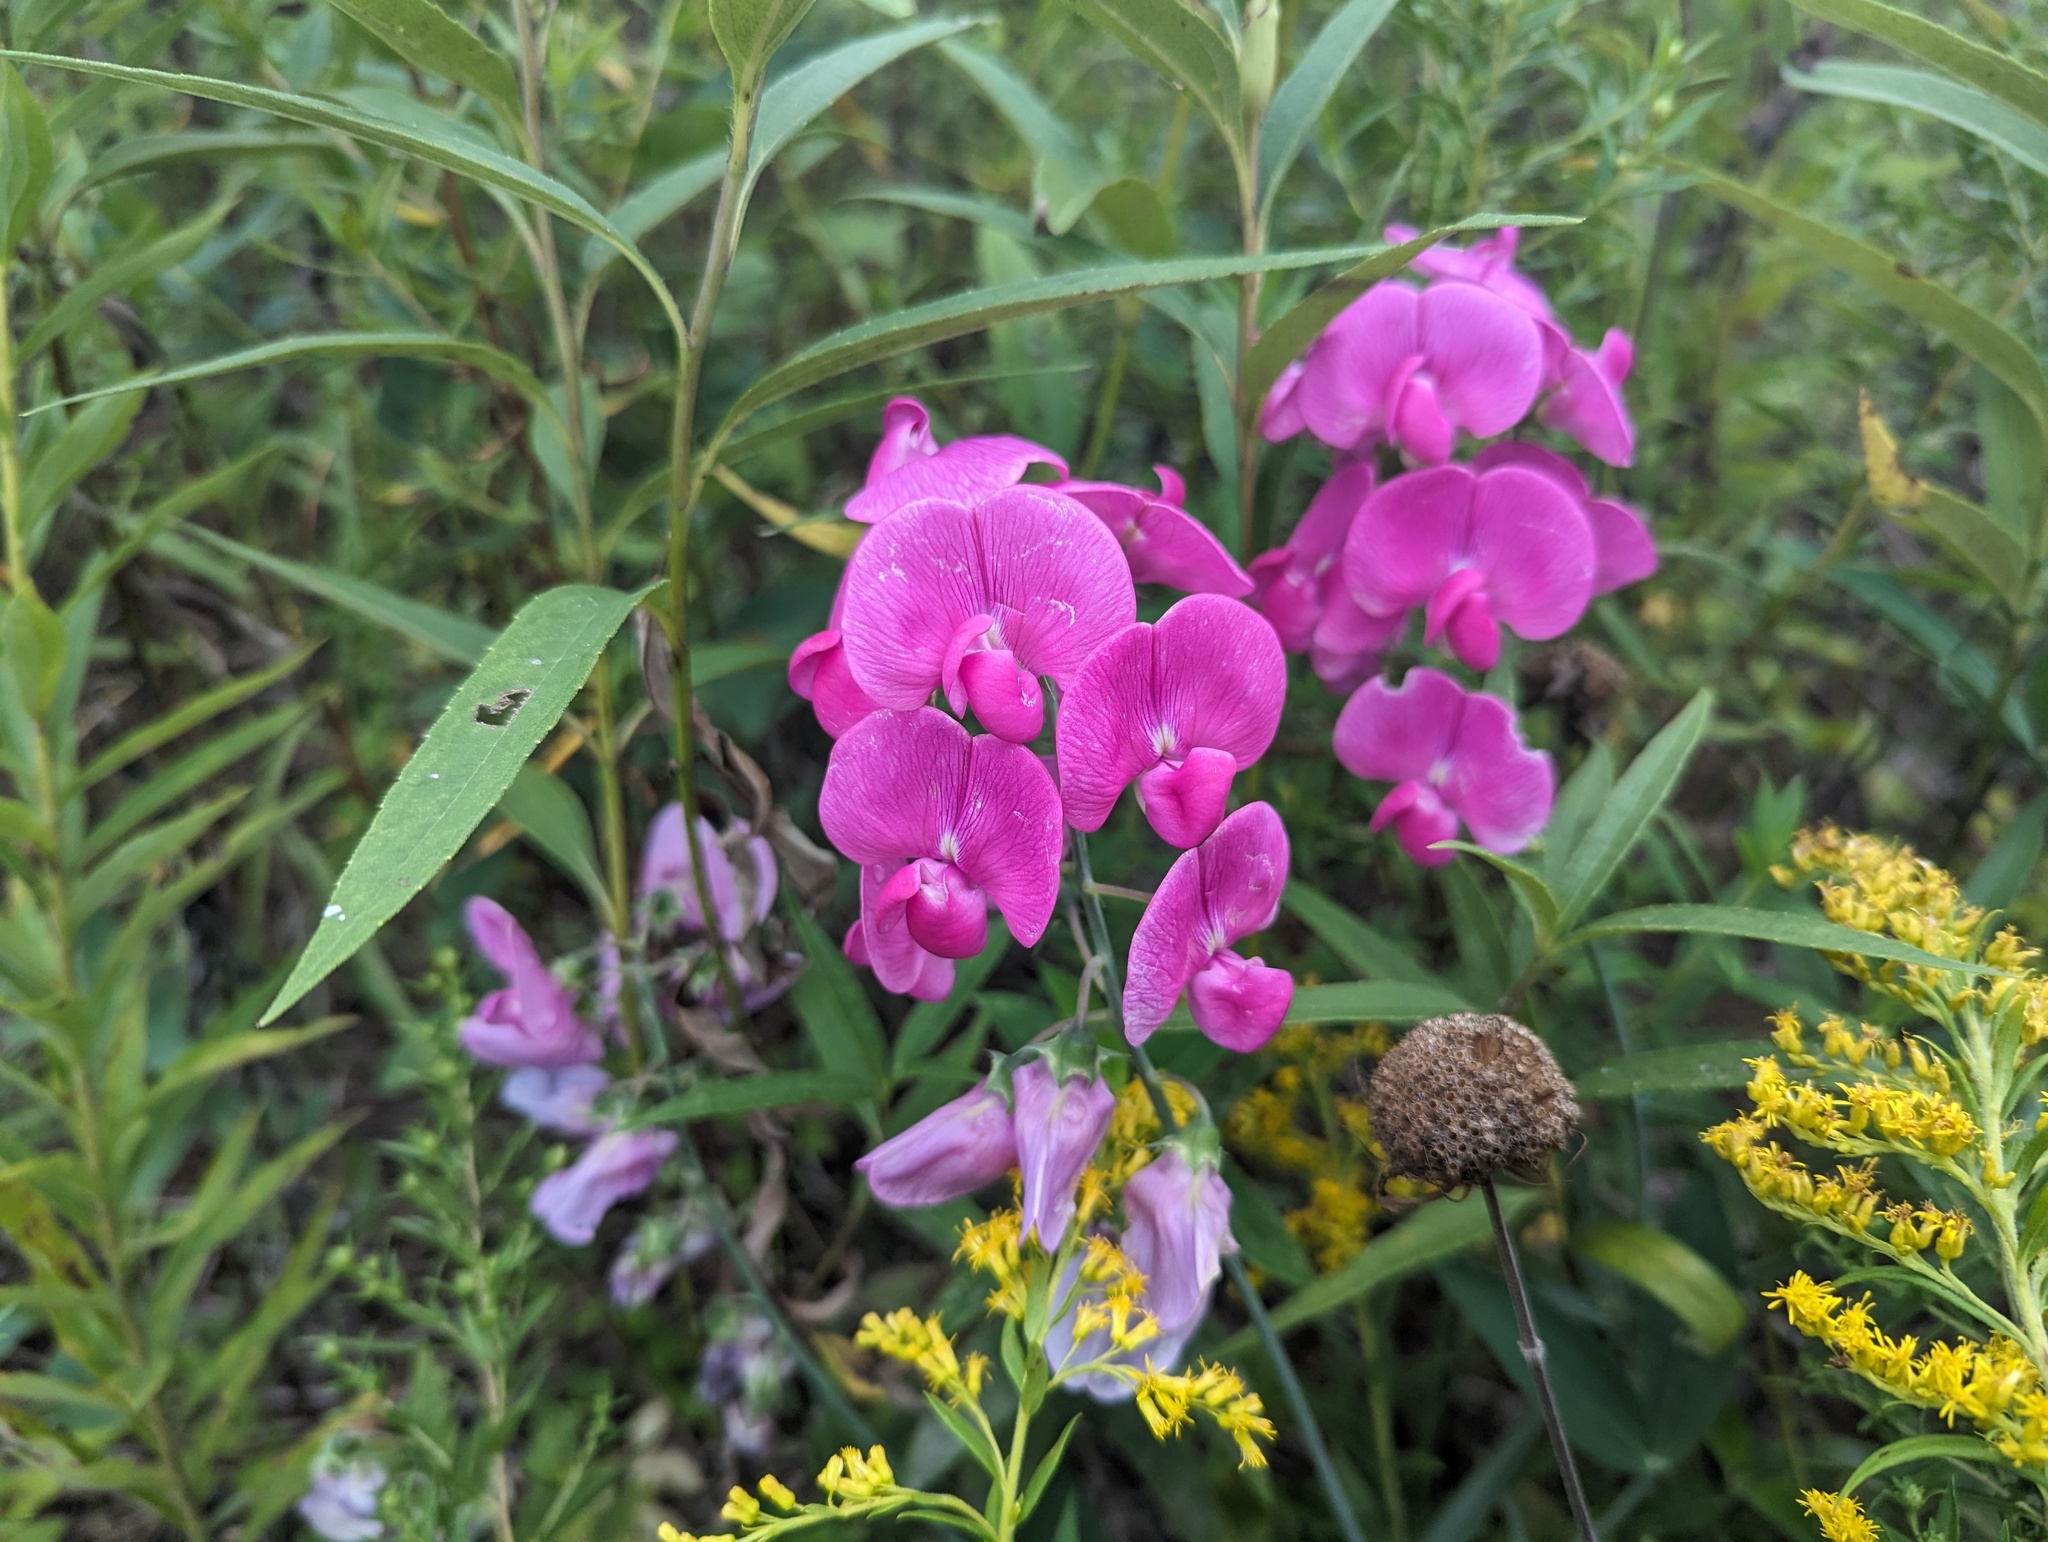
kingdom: Plantae
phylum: Tracheophyta
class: Magnoliopsida
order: Fabales
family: Fabaceae
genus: Lathyrus
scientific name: Lathyrus latifolius
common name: Perennial pea
